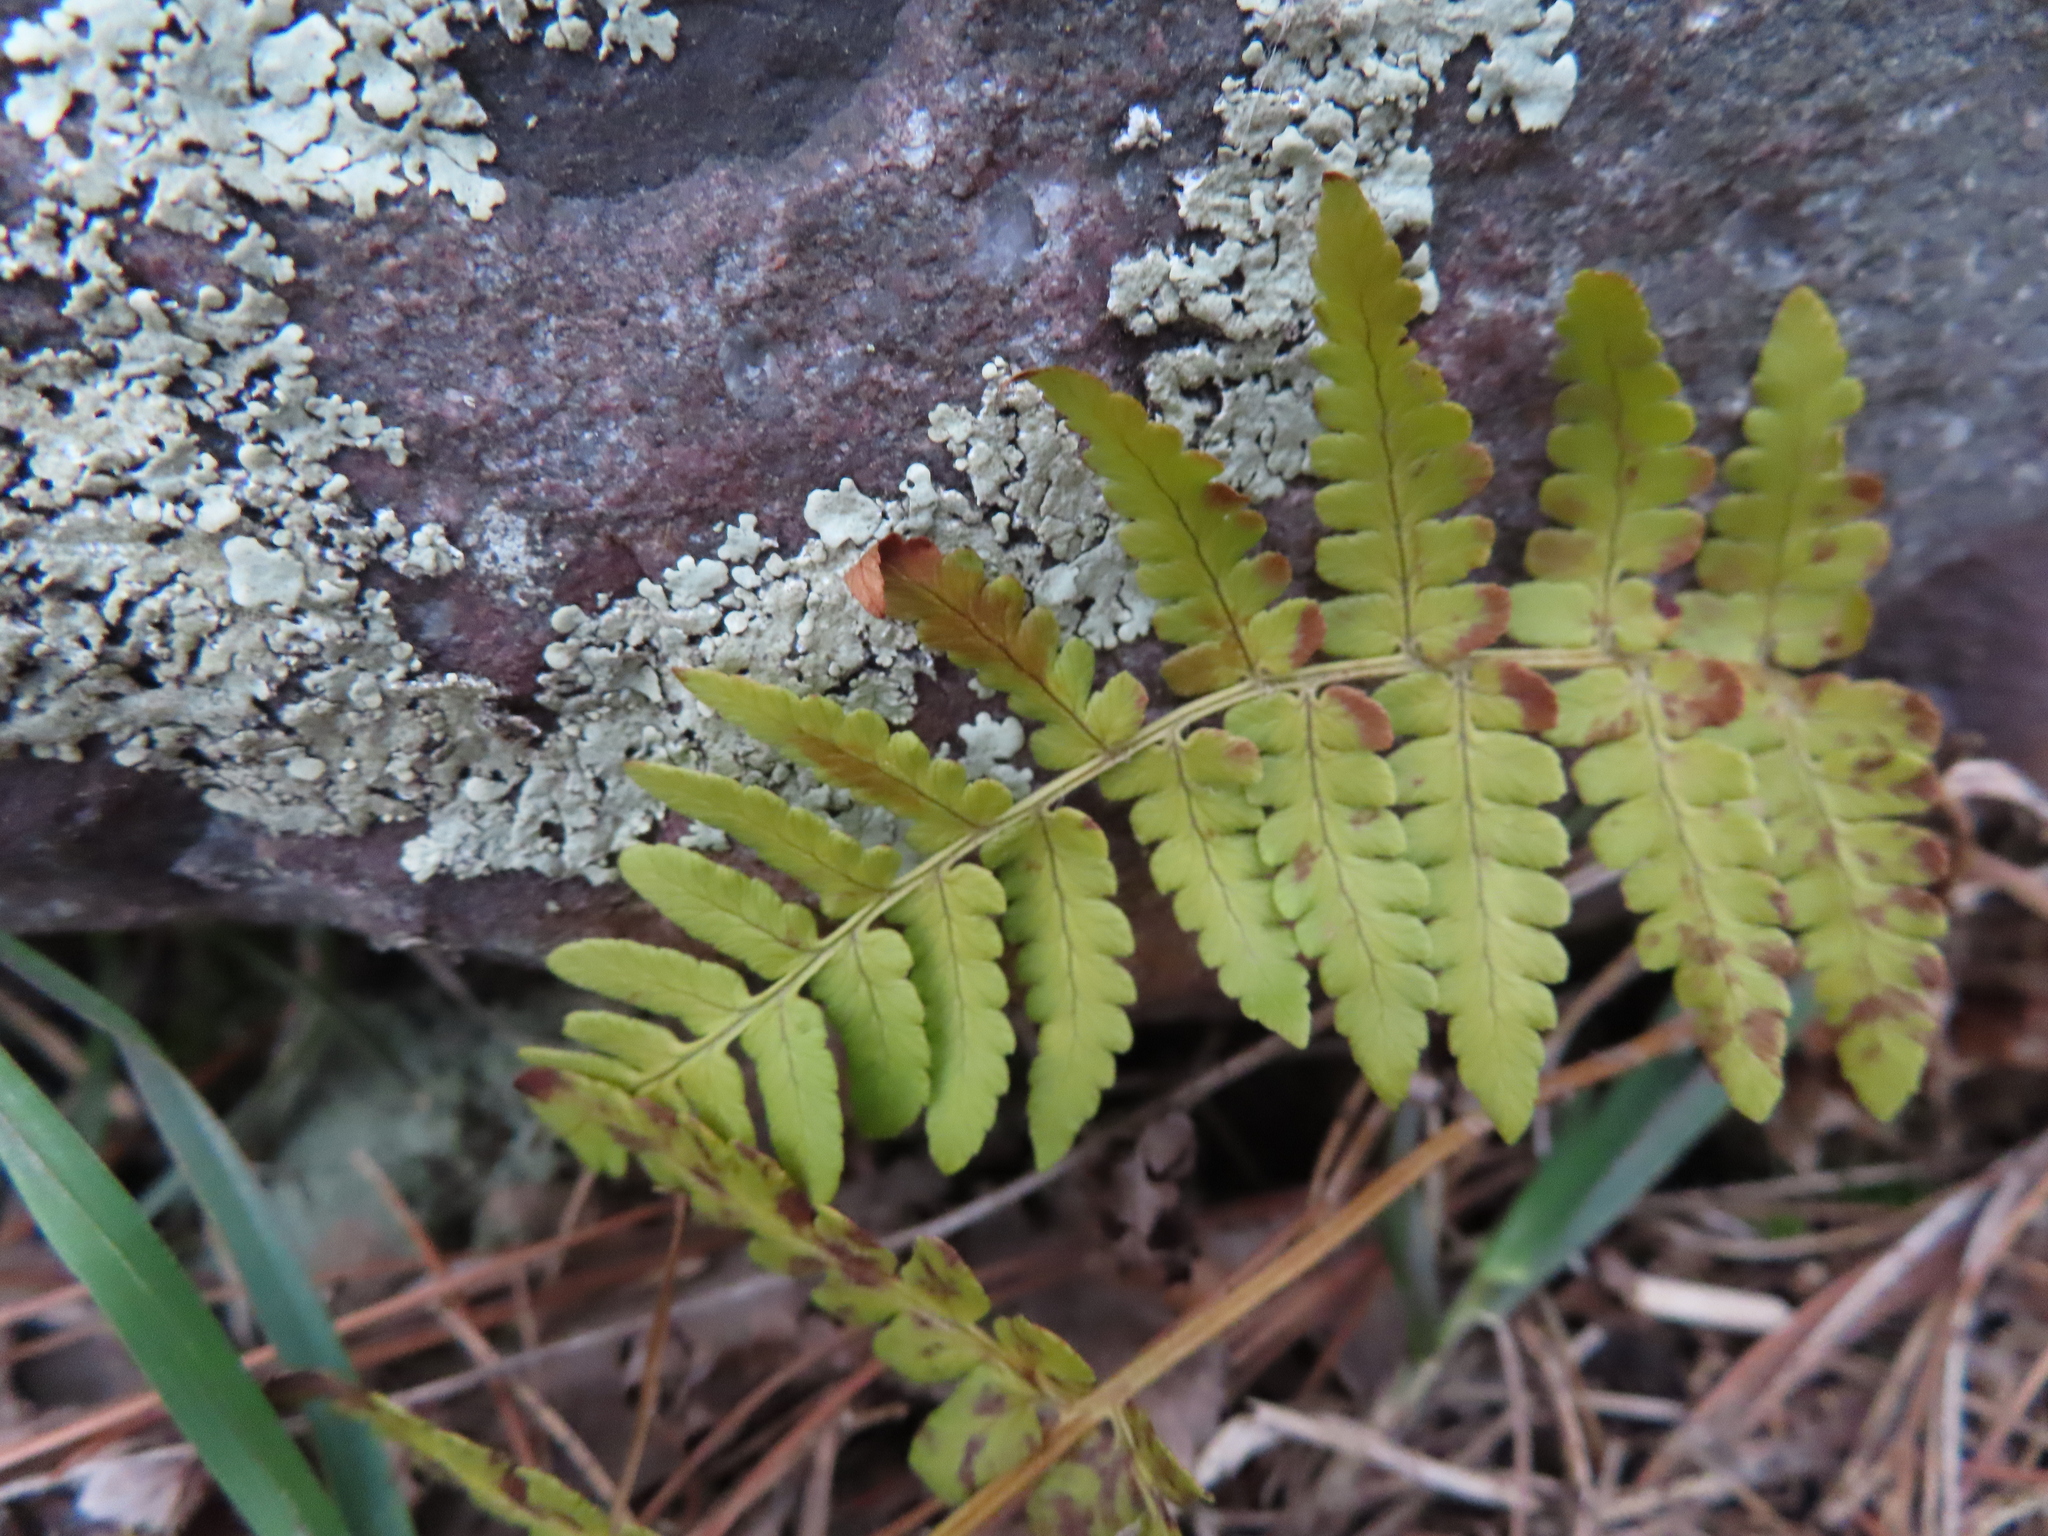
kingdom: Plantae
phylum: Tracheophyta
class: Polypodiopsida
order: Polypodiales
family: Dryopteridaceae
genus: Dryopteris
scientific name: Dryopteris marginalis
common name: Marginal wood fern
